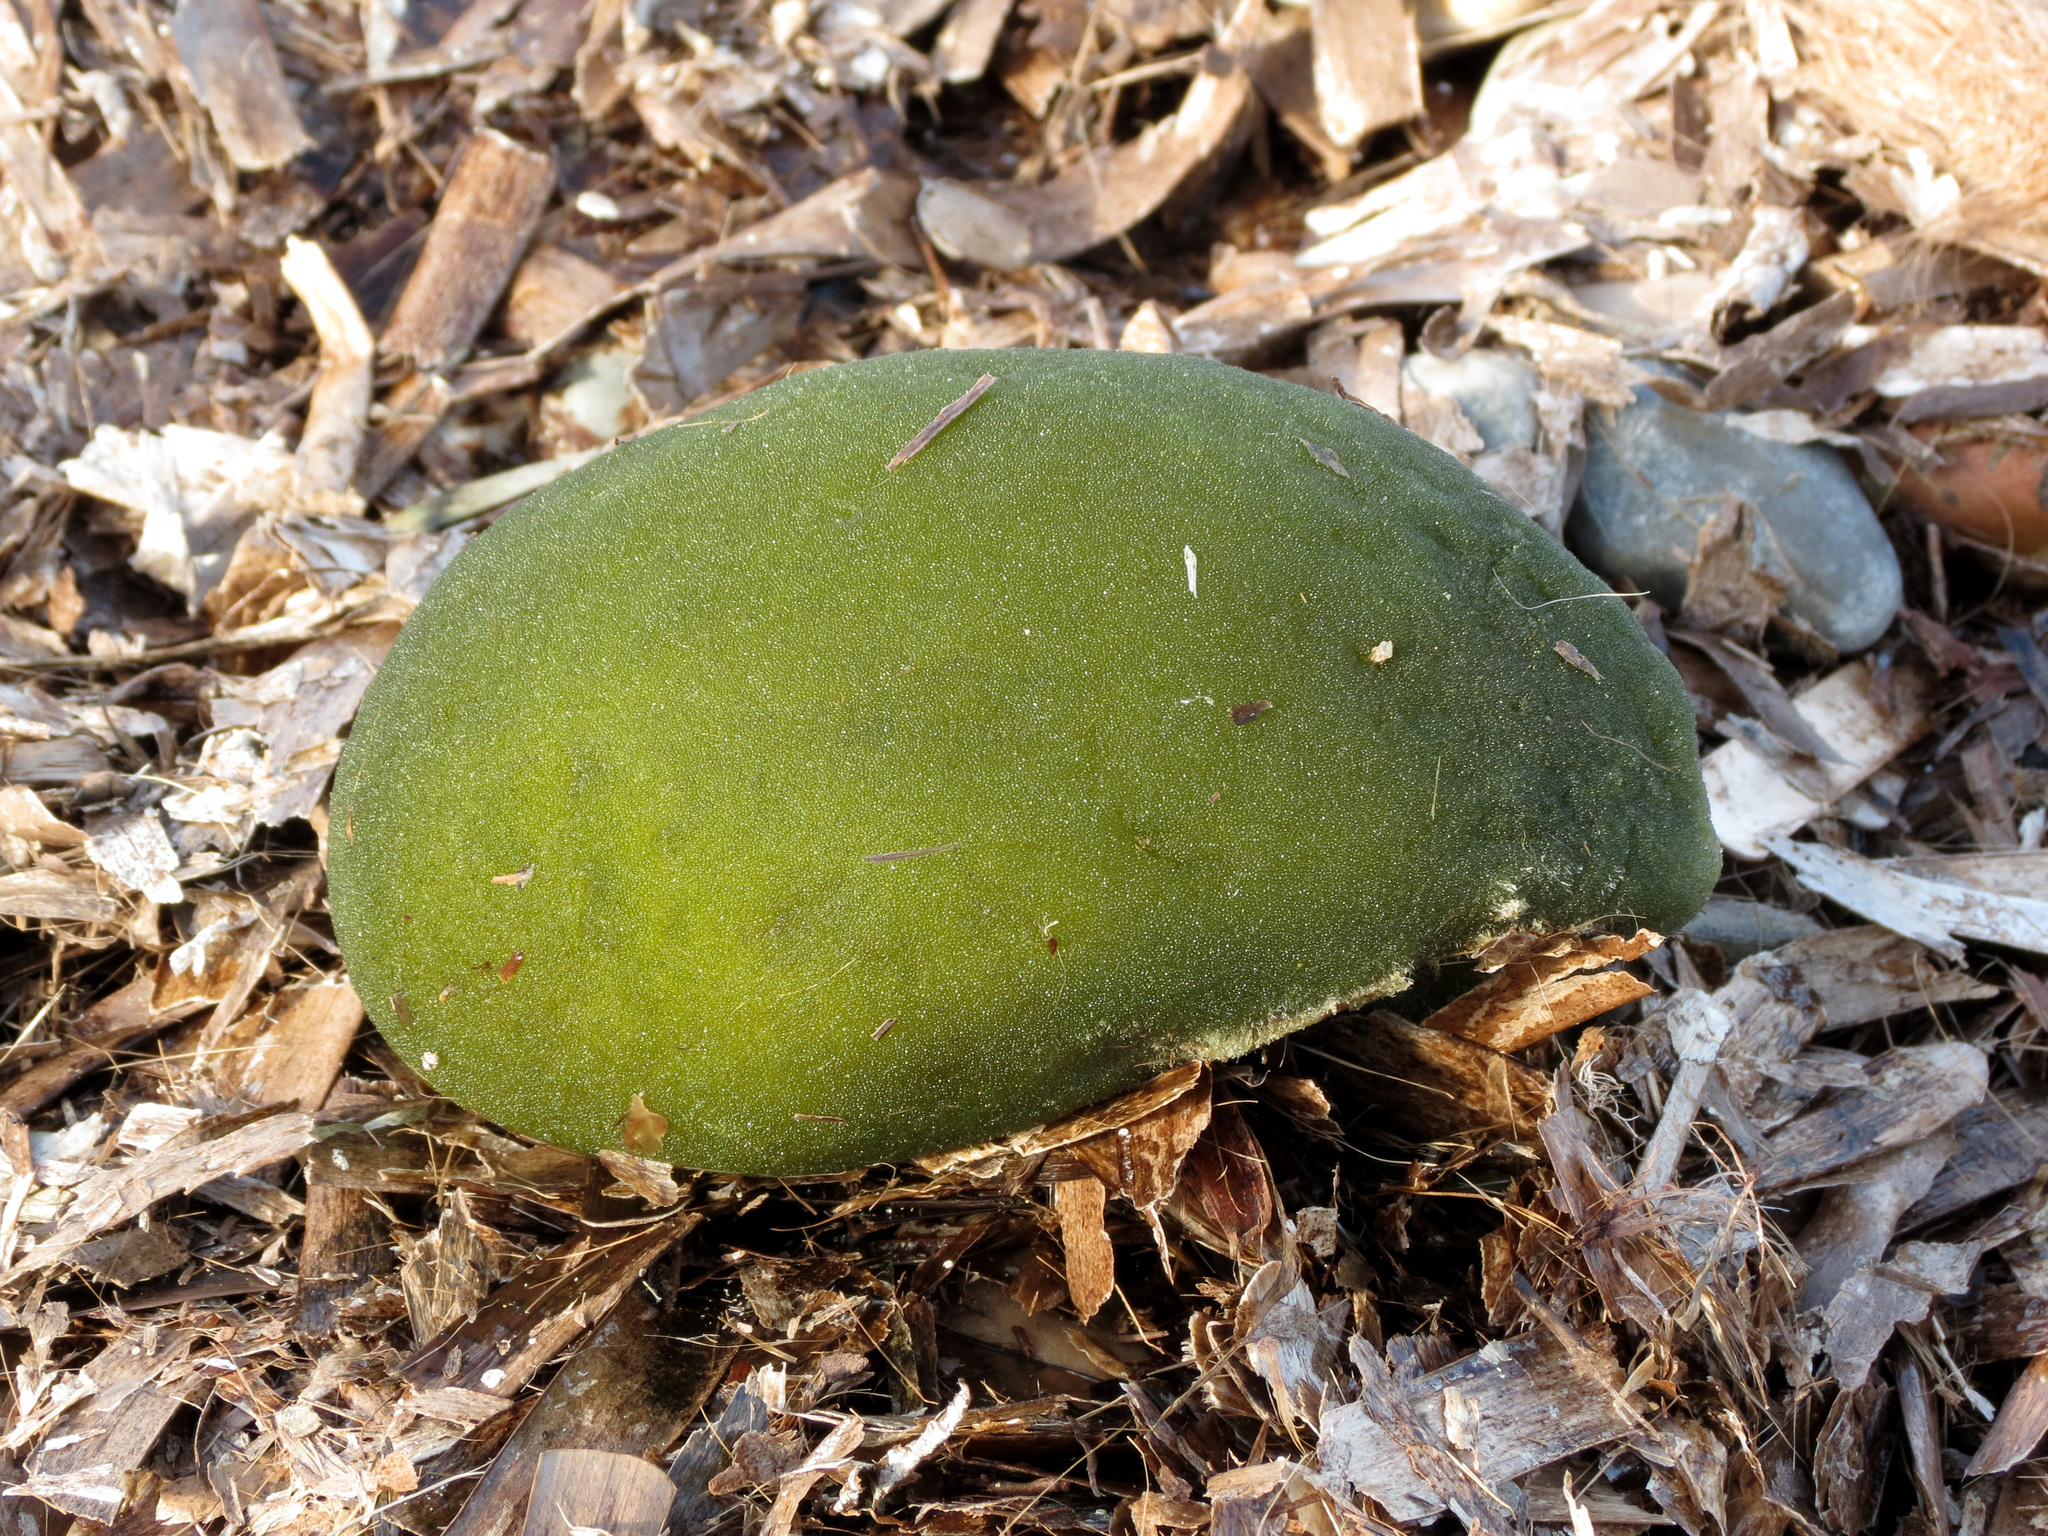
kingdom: Plantae
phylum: Chlorophyta
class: Ulvophyceae
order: Bryopsidales
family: Codiaceae
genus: Codium
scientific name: Codium bursa
